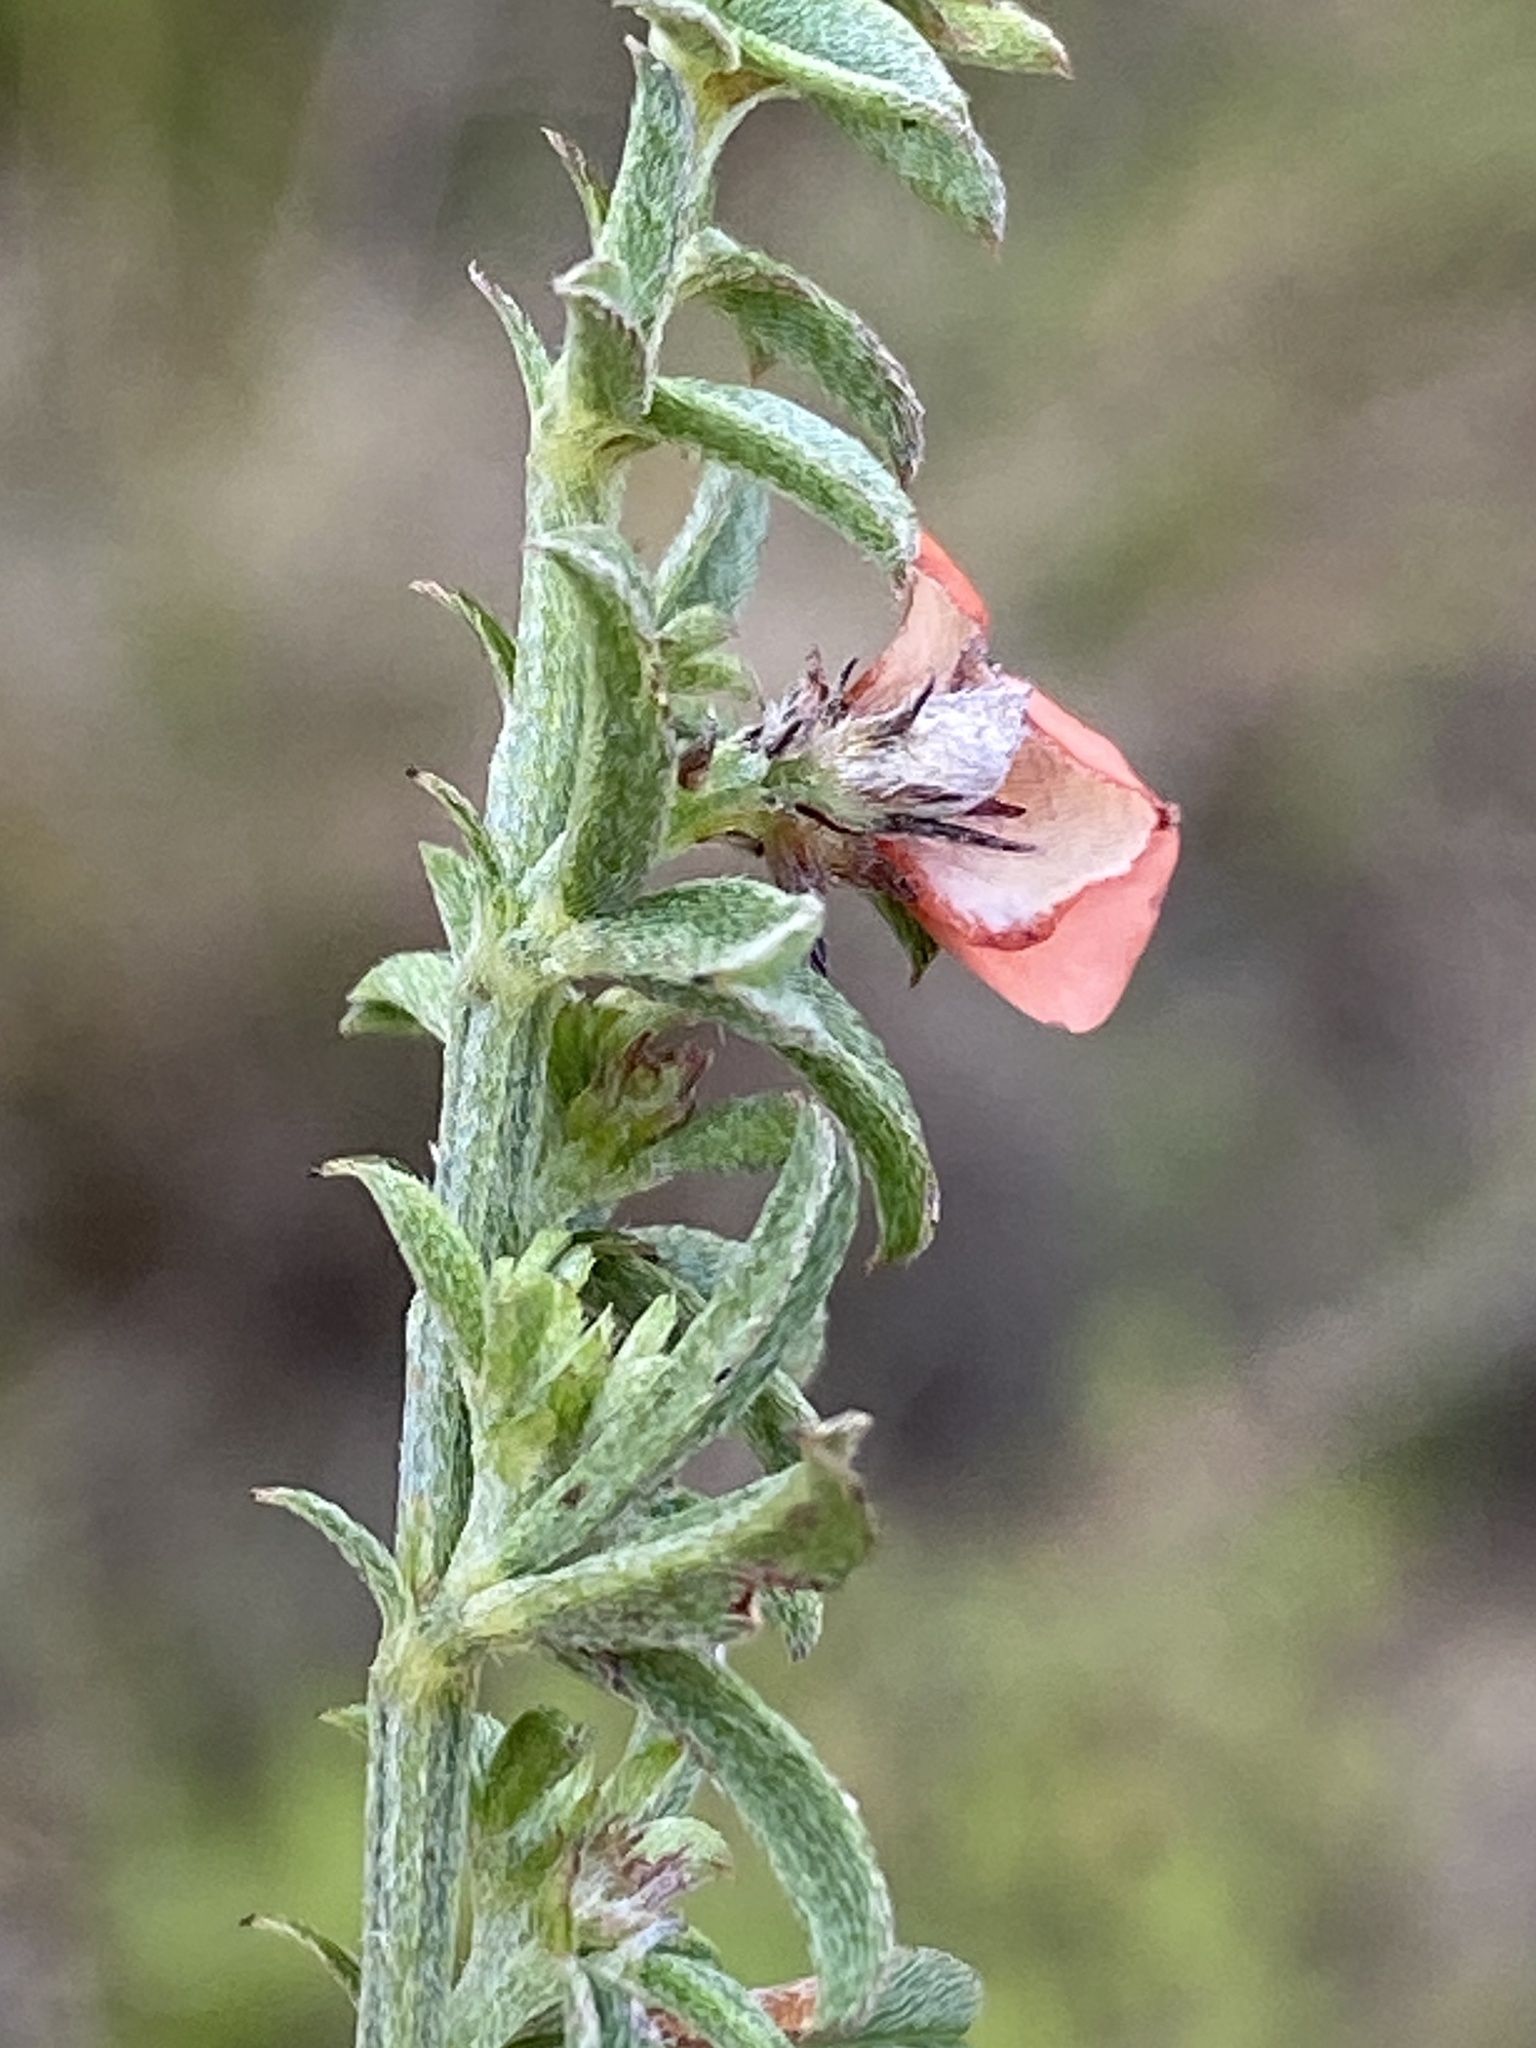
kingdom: Plantae
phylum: Tracheophyta
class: Magnoliopsida
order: Fabales
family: Fabaceae
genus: Indigofera
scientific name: Indigofera priorii
